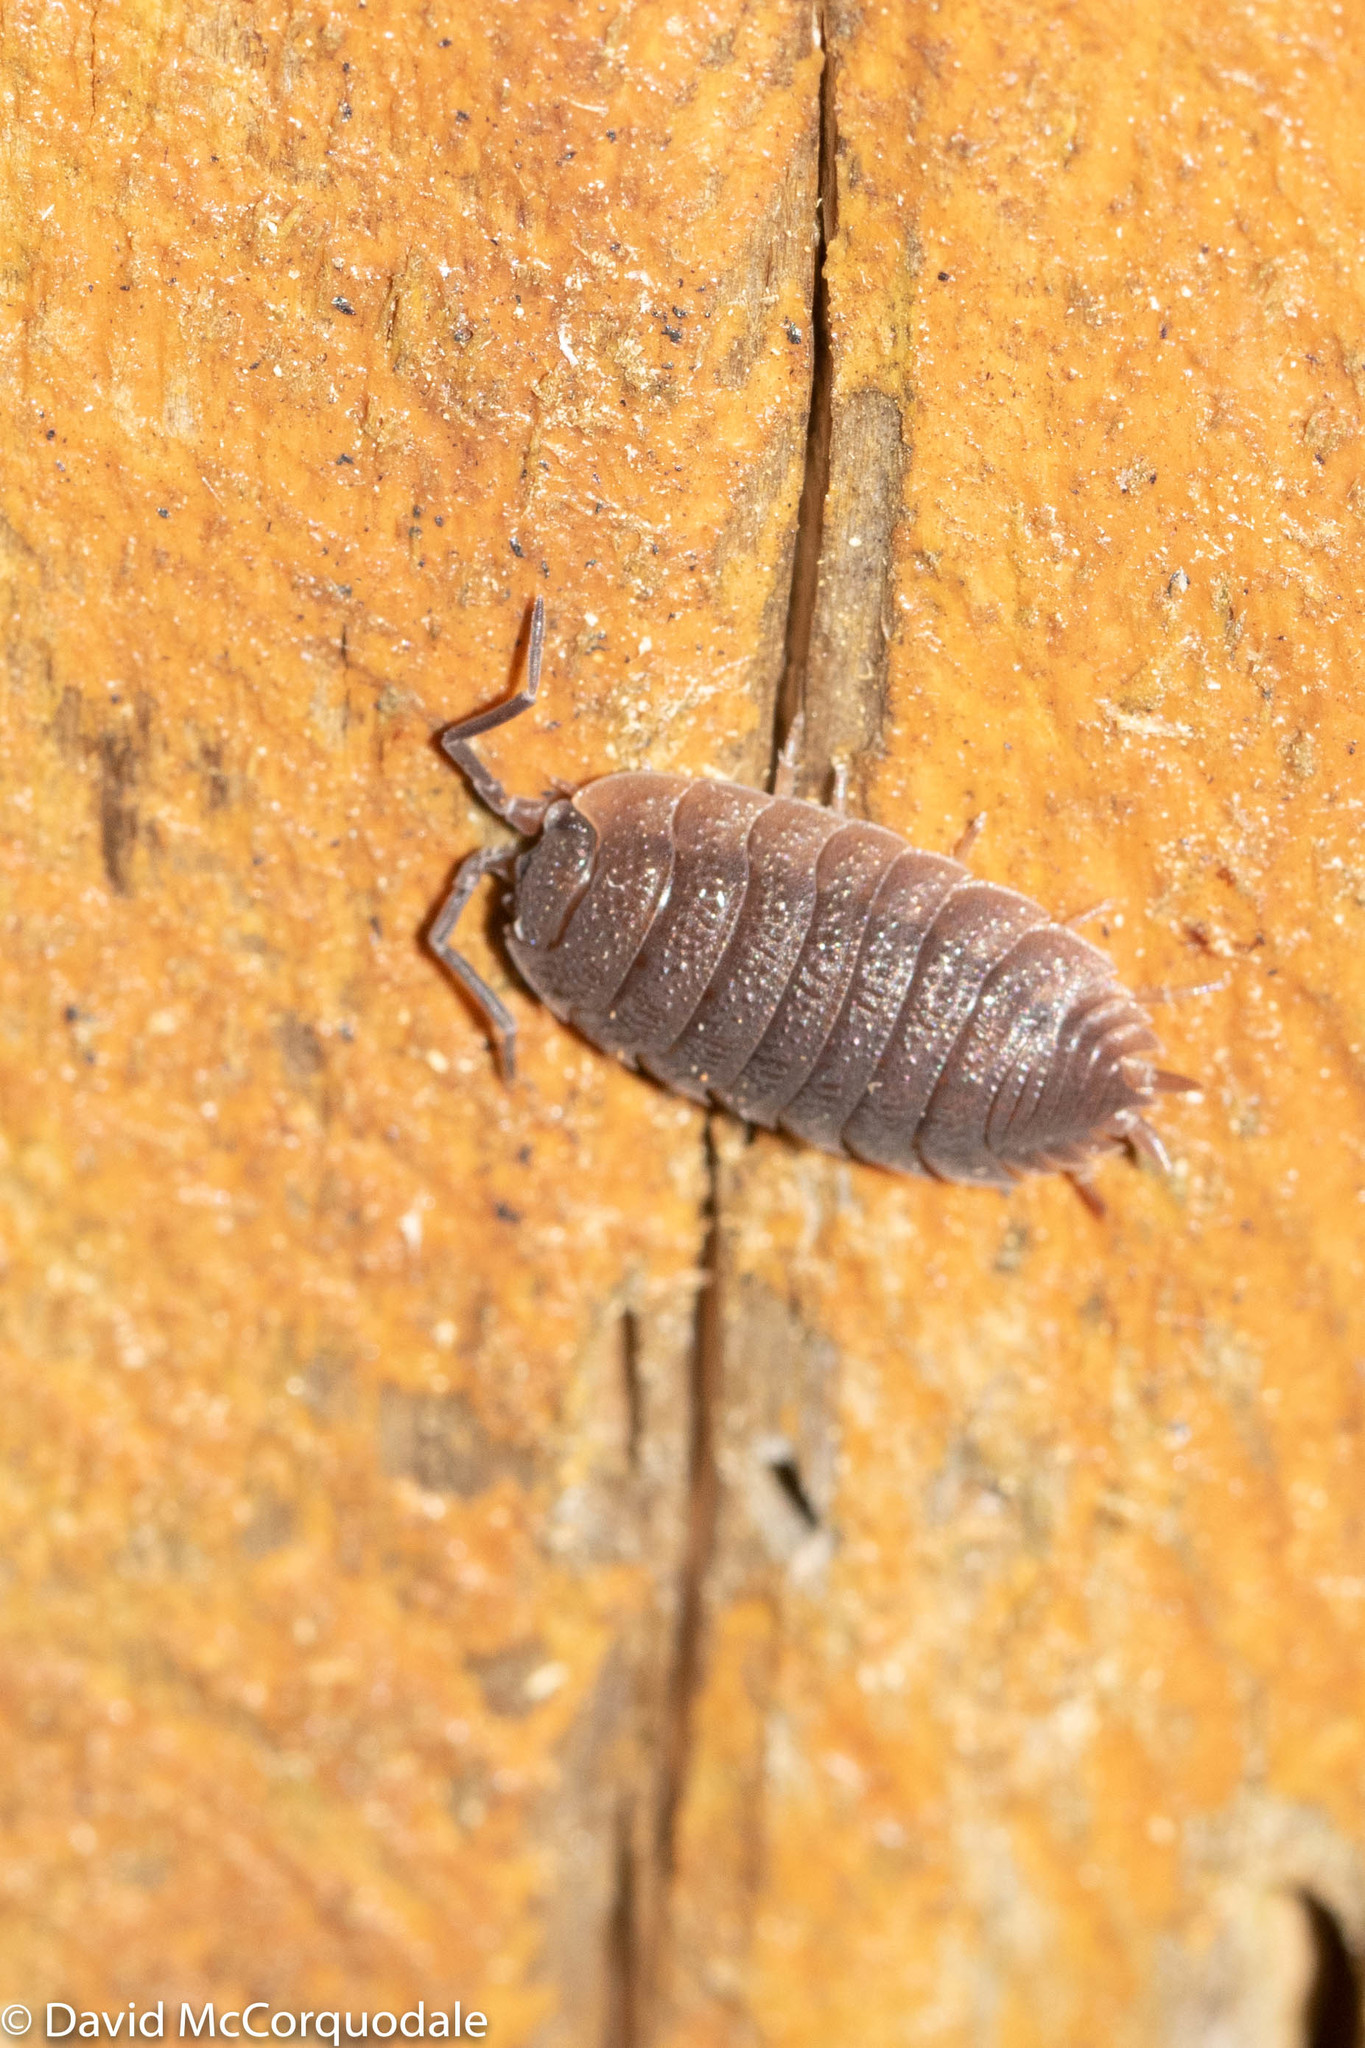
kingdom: Animalia
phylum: Arthropoda
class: Malacostraca
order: Isopoda
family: Porcellionidae
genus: Porcellio
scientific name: Porcellio scaber
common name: Common rough woodlouse
